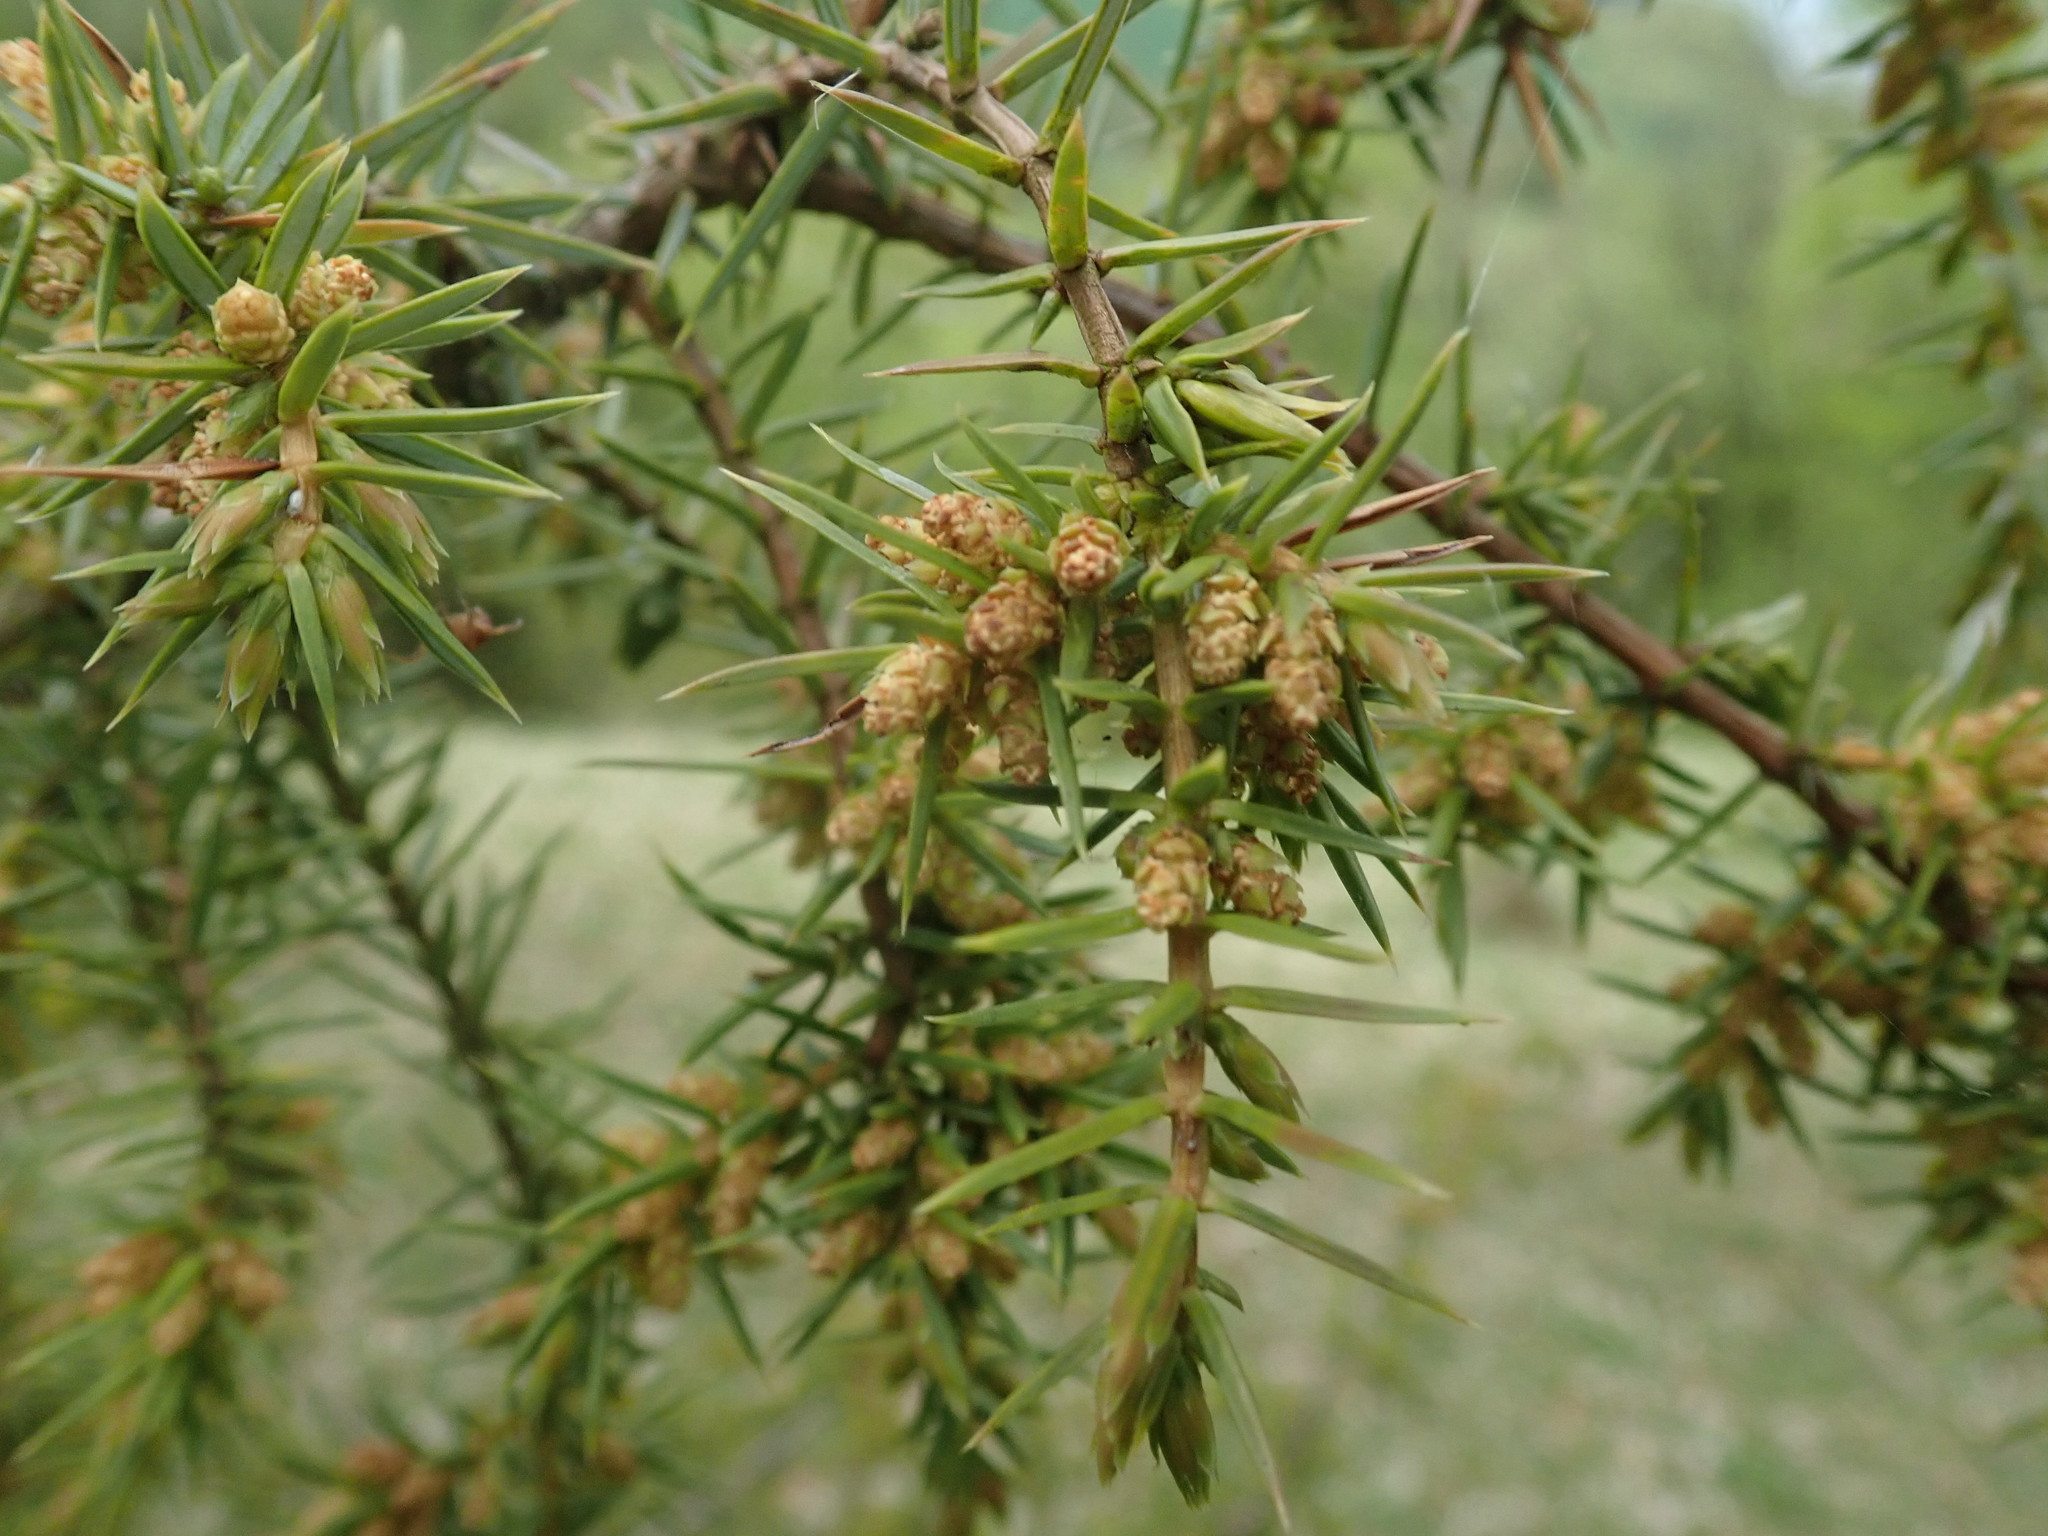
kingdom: Plantae
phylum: Tracheophyta
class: Pinopsida
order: Pinales
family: Cupressaceae
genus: Juniperus
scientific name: Juniperus communis
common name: Common juniper
